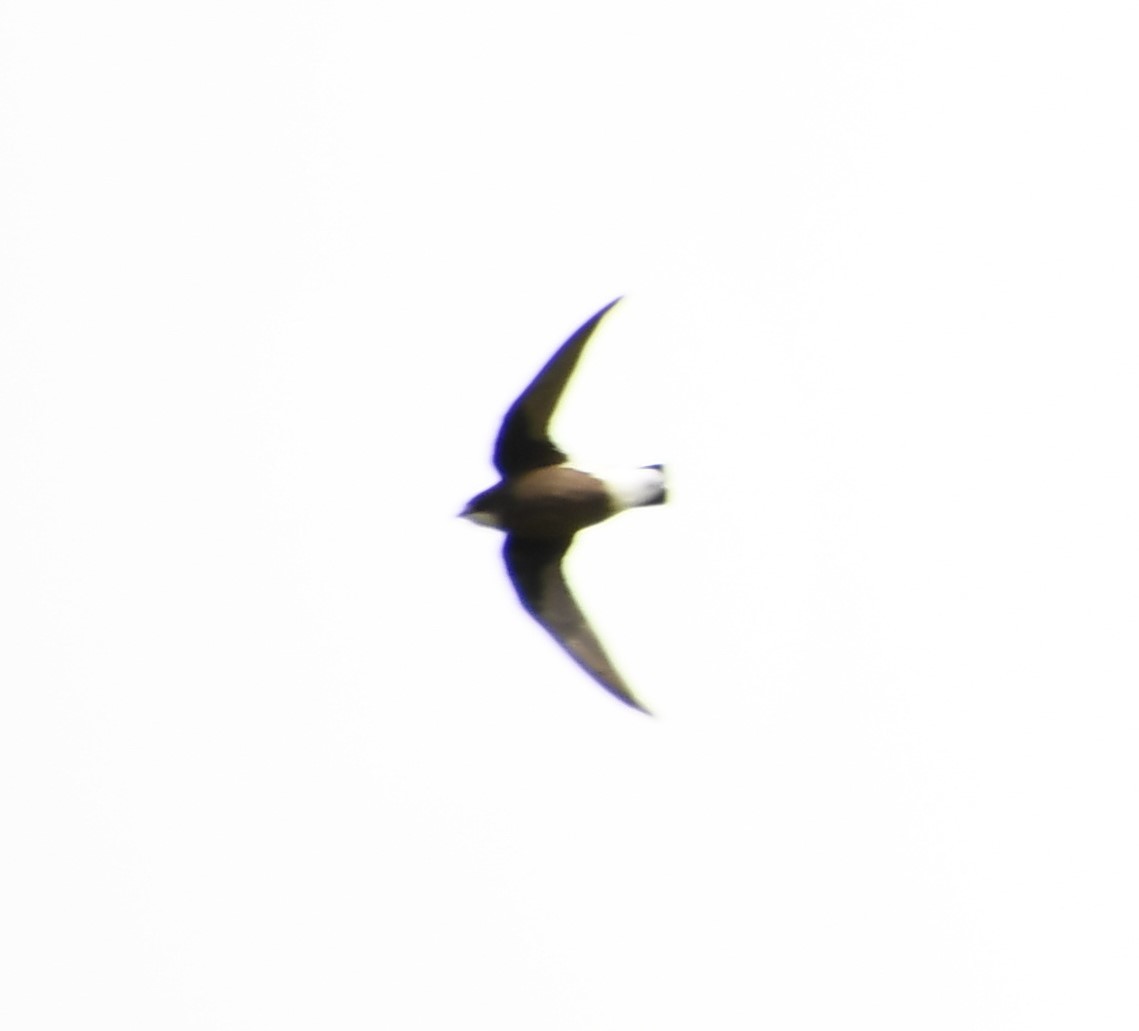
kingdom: Animalia
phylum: Chordata
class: Aves
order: Apodiformes
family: Apodidae
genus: Hirundapus
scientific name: Hirundapus caudacutus
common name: White-throated needletail
